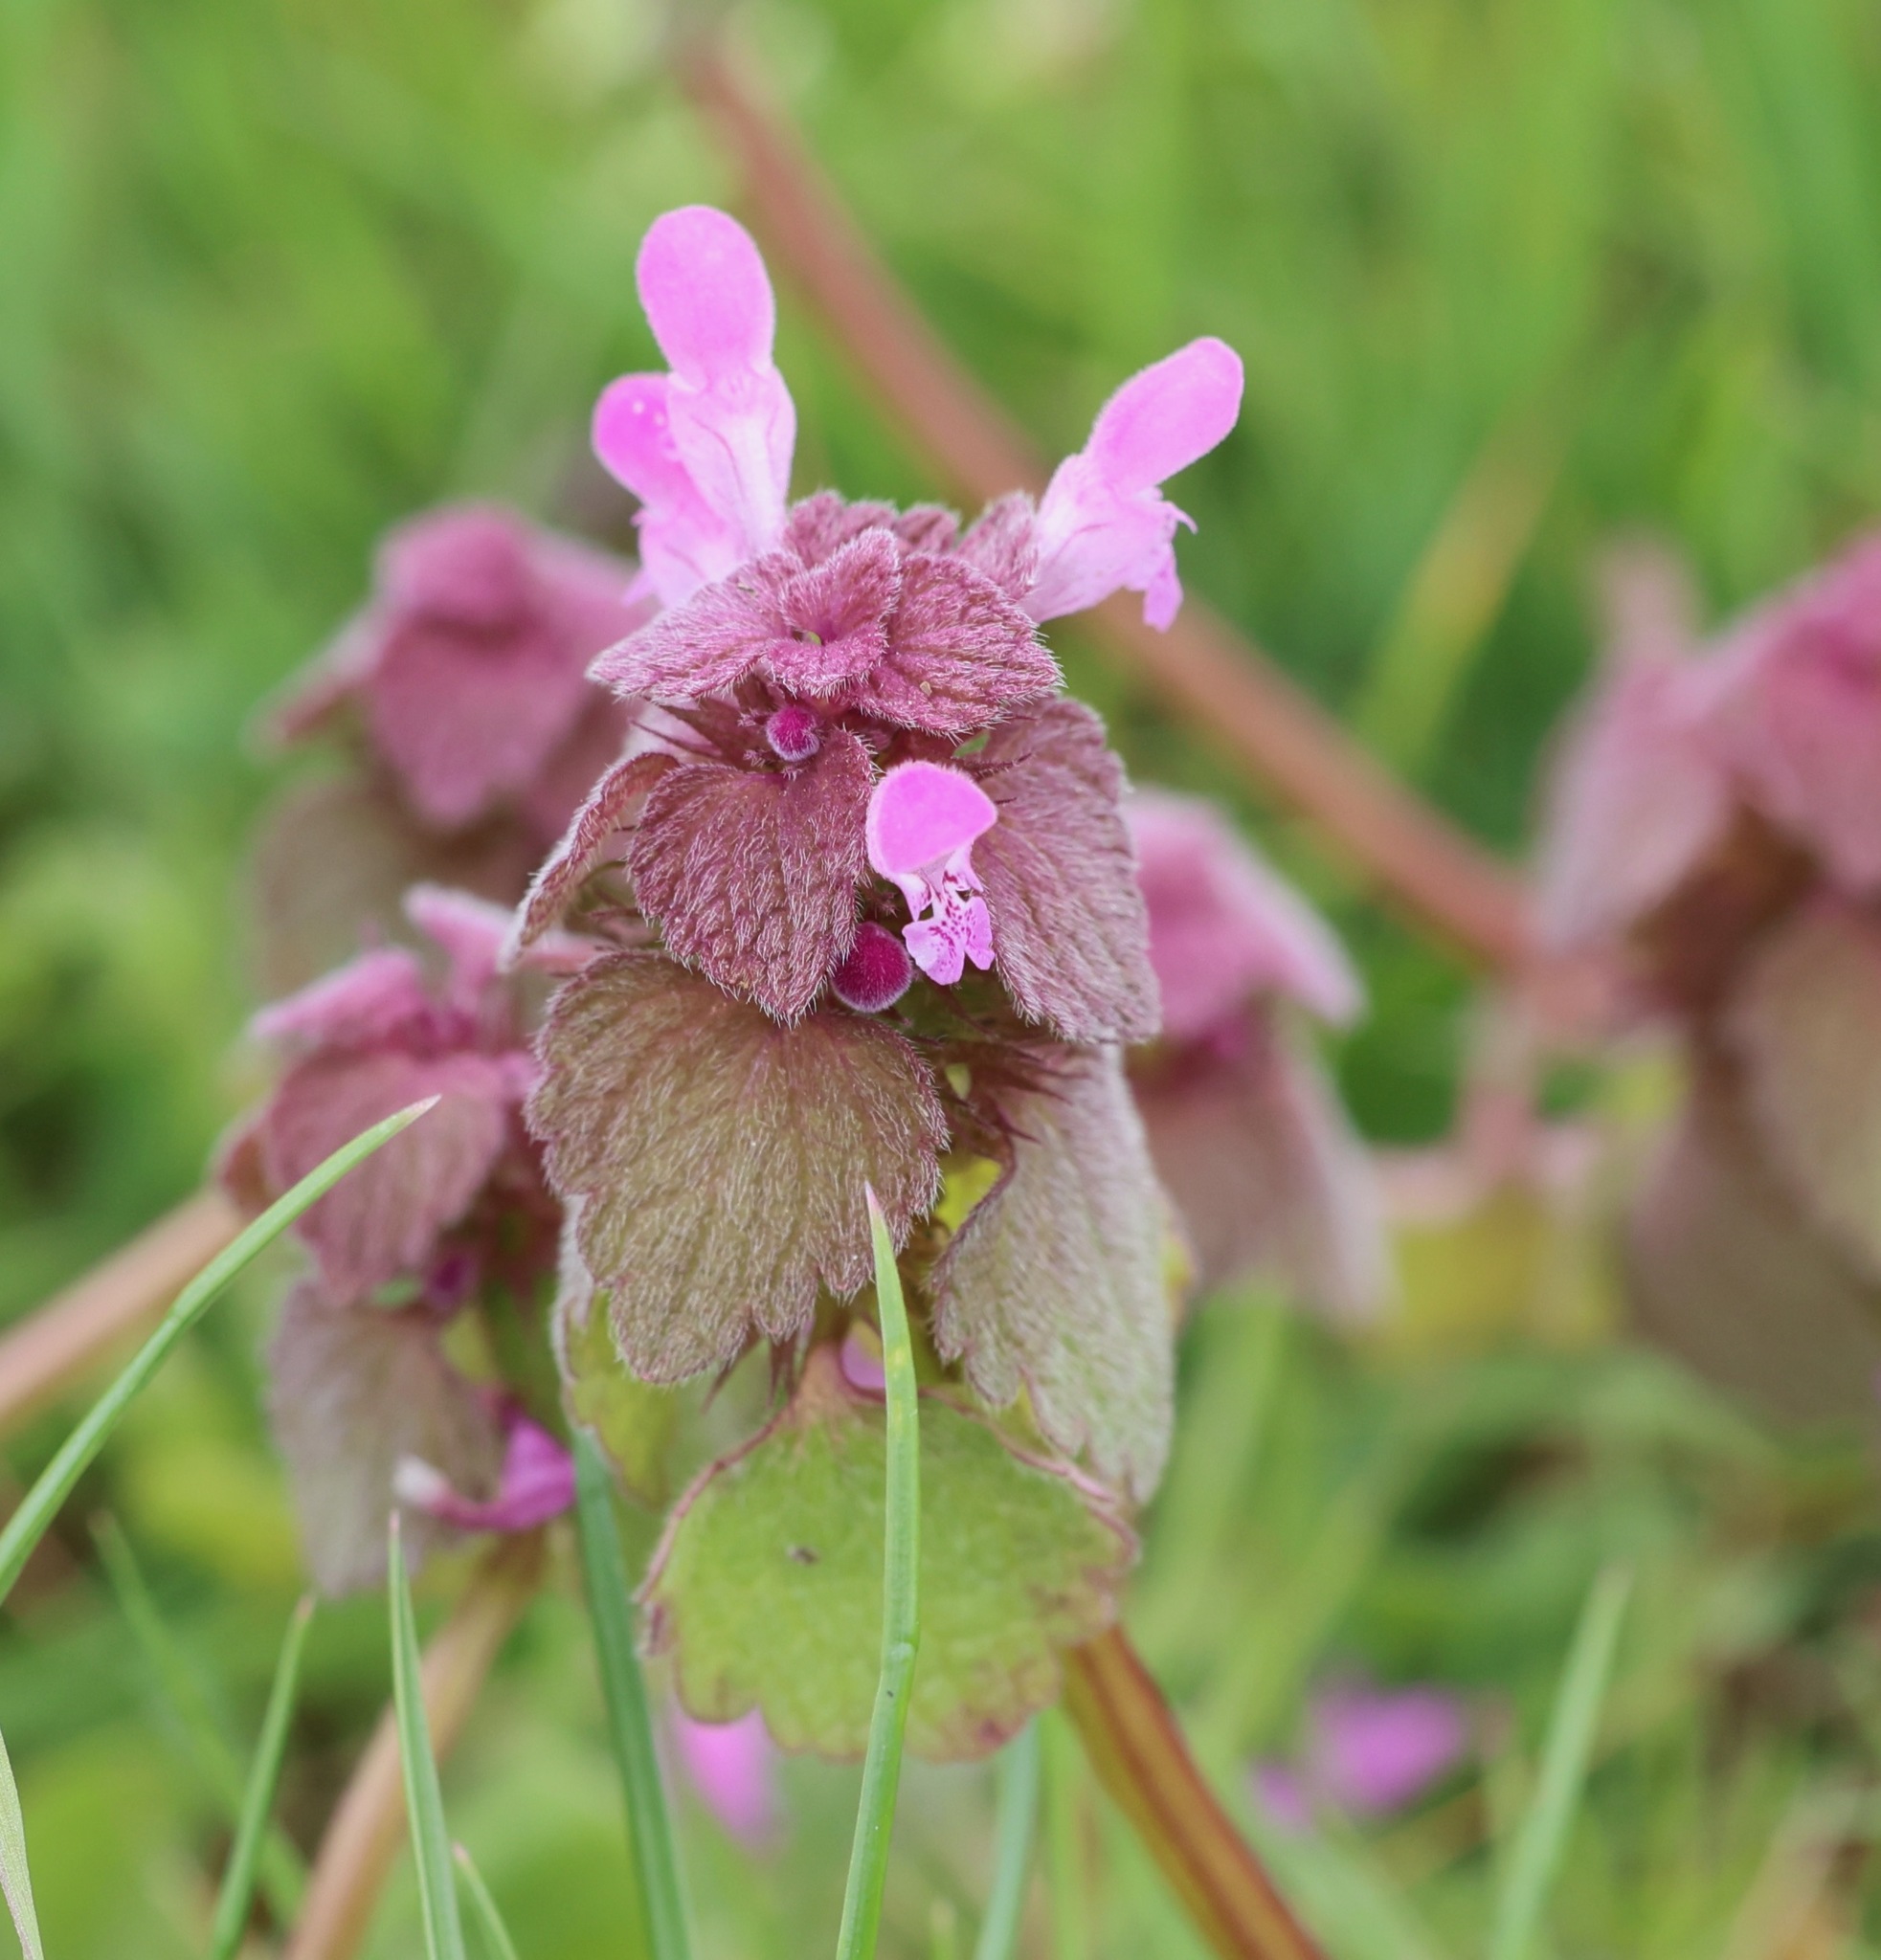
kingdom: Plantae
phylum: Tracheophyta
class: Magnoliopsida
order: Lamiales
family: Lamiaceae
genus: Lamium
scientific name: Lamium purpureum
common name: Red dead-nettle
